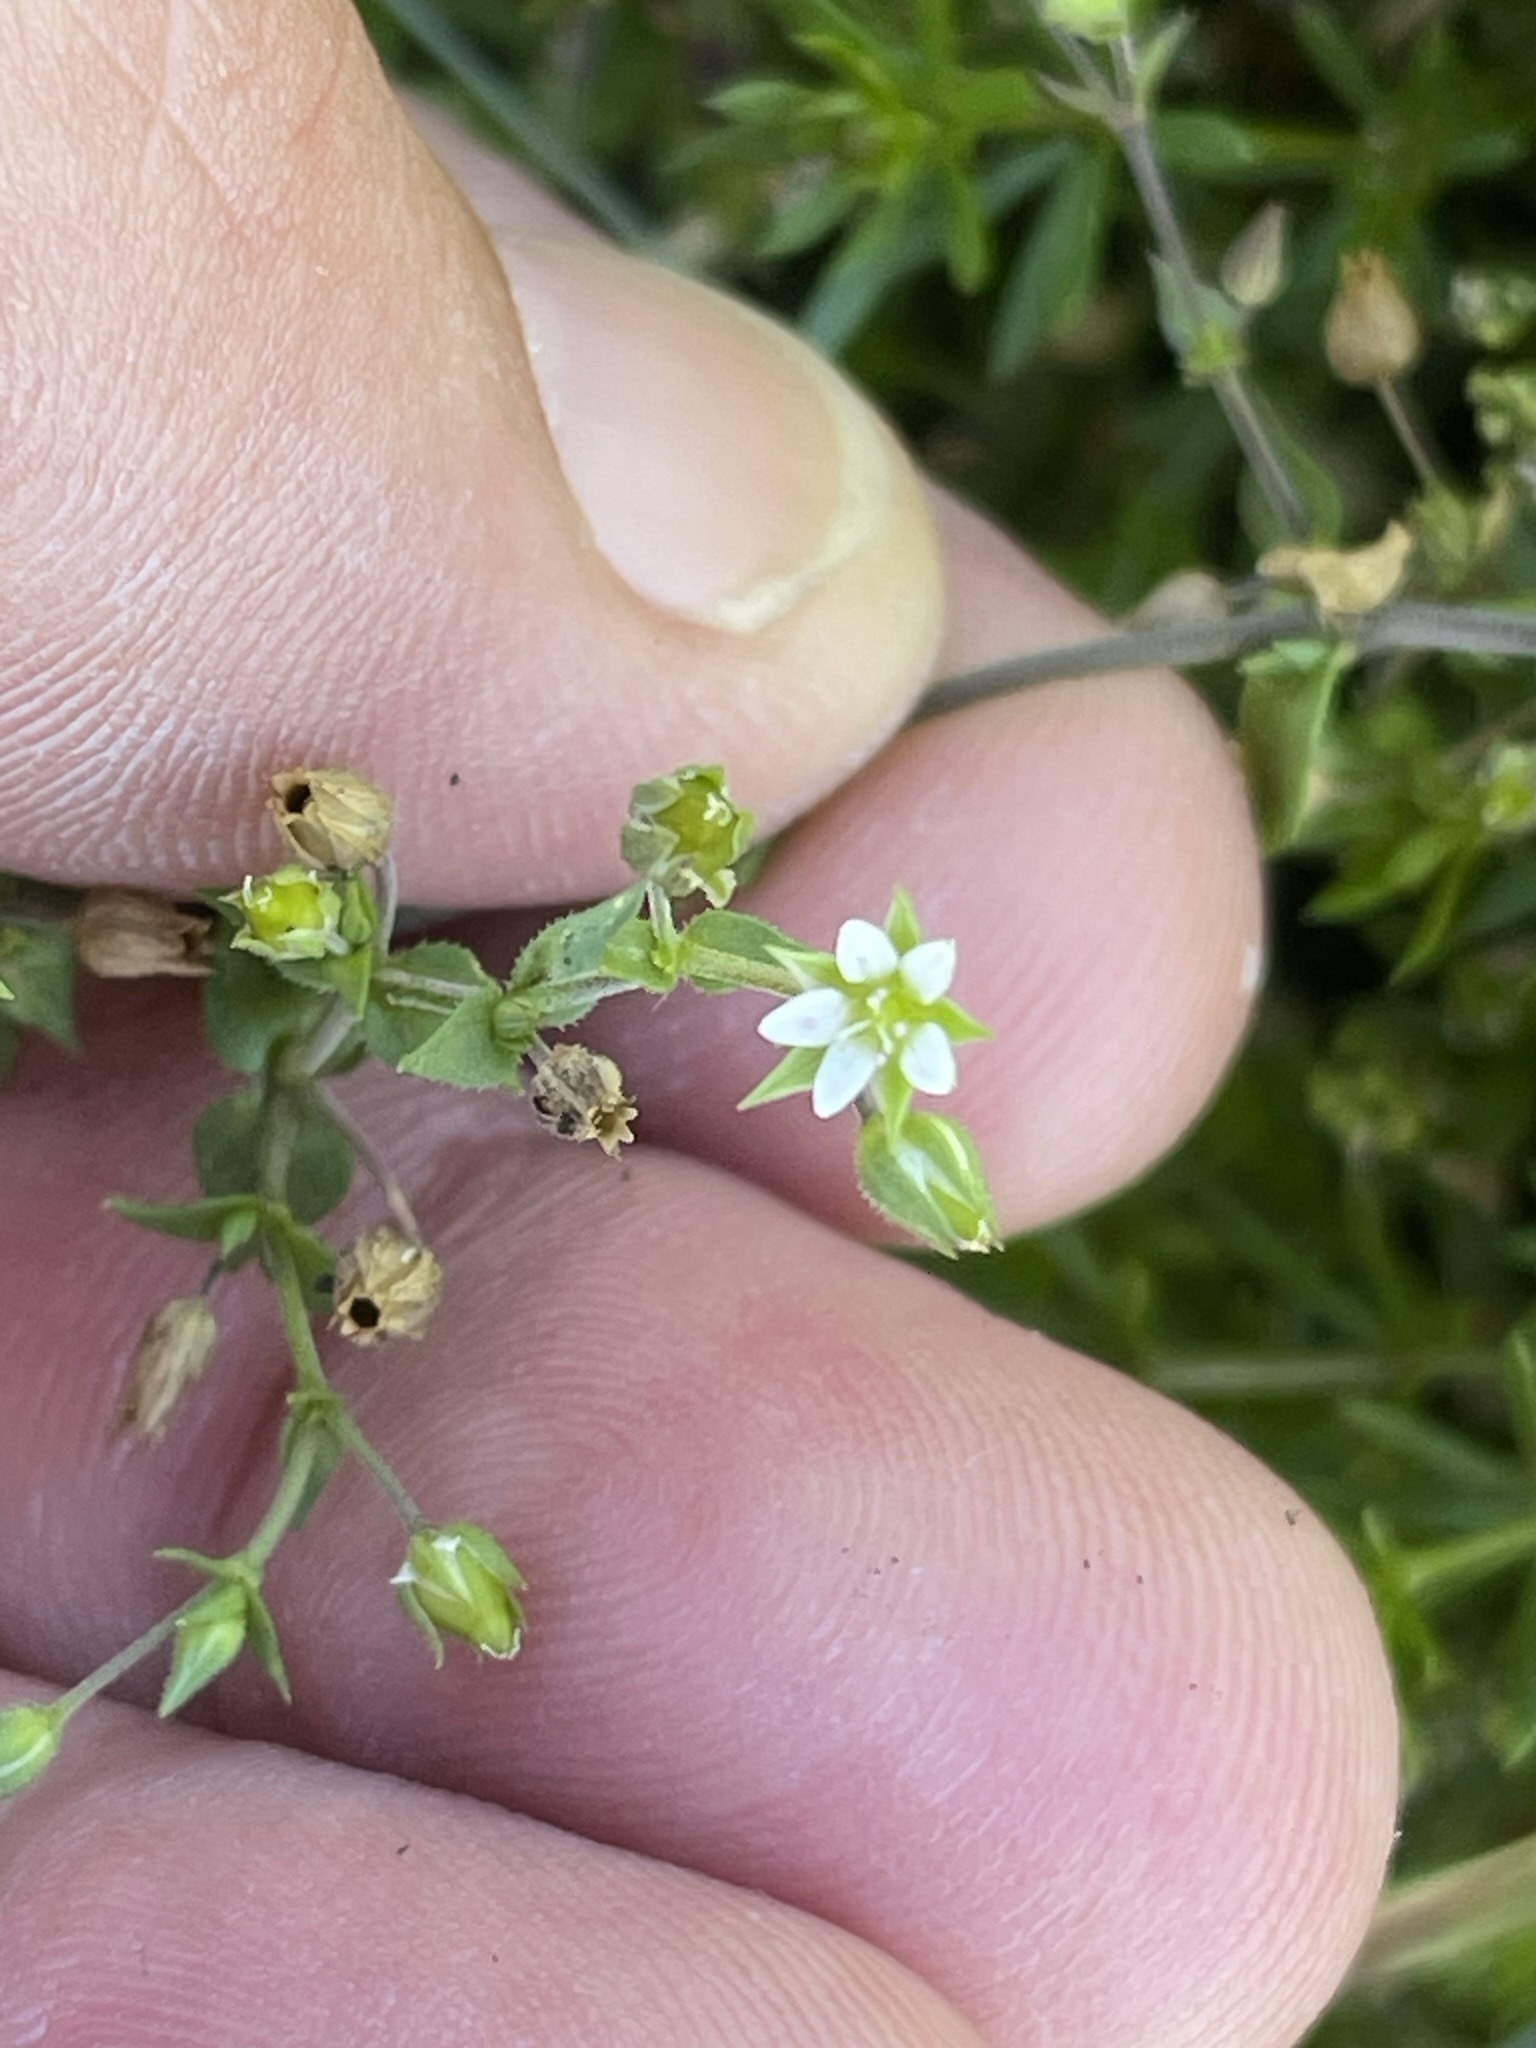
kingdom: Plantae
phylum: Tracheophyta
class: Magnoliopsida
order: Caryophyllales
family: Caryophyllaceae
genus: Arenaria
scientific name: Arenaria serpyllifolia
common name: Thyme-leaved sandwort
